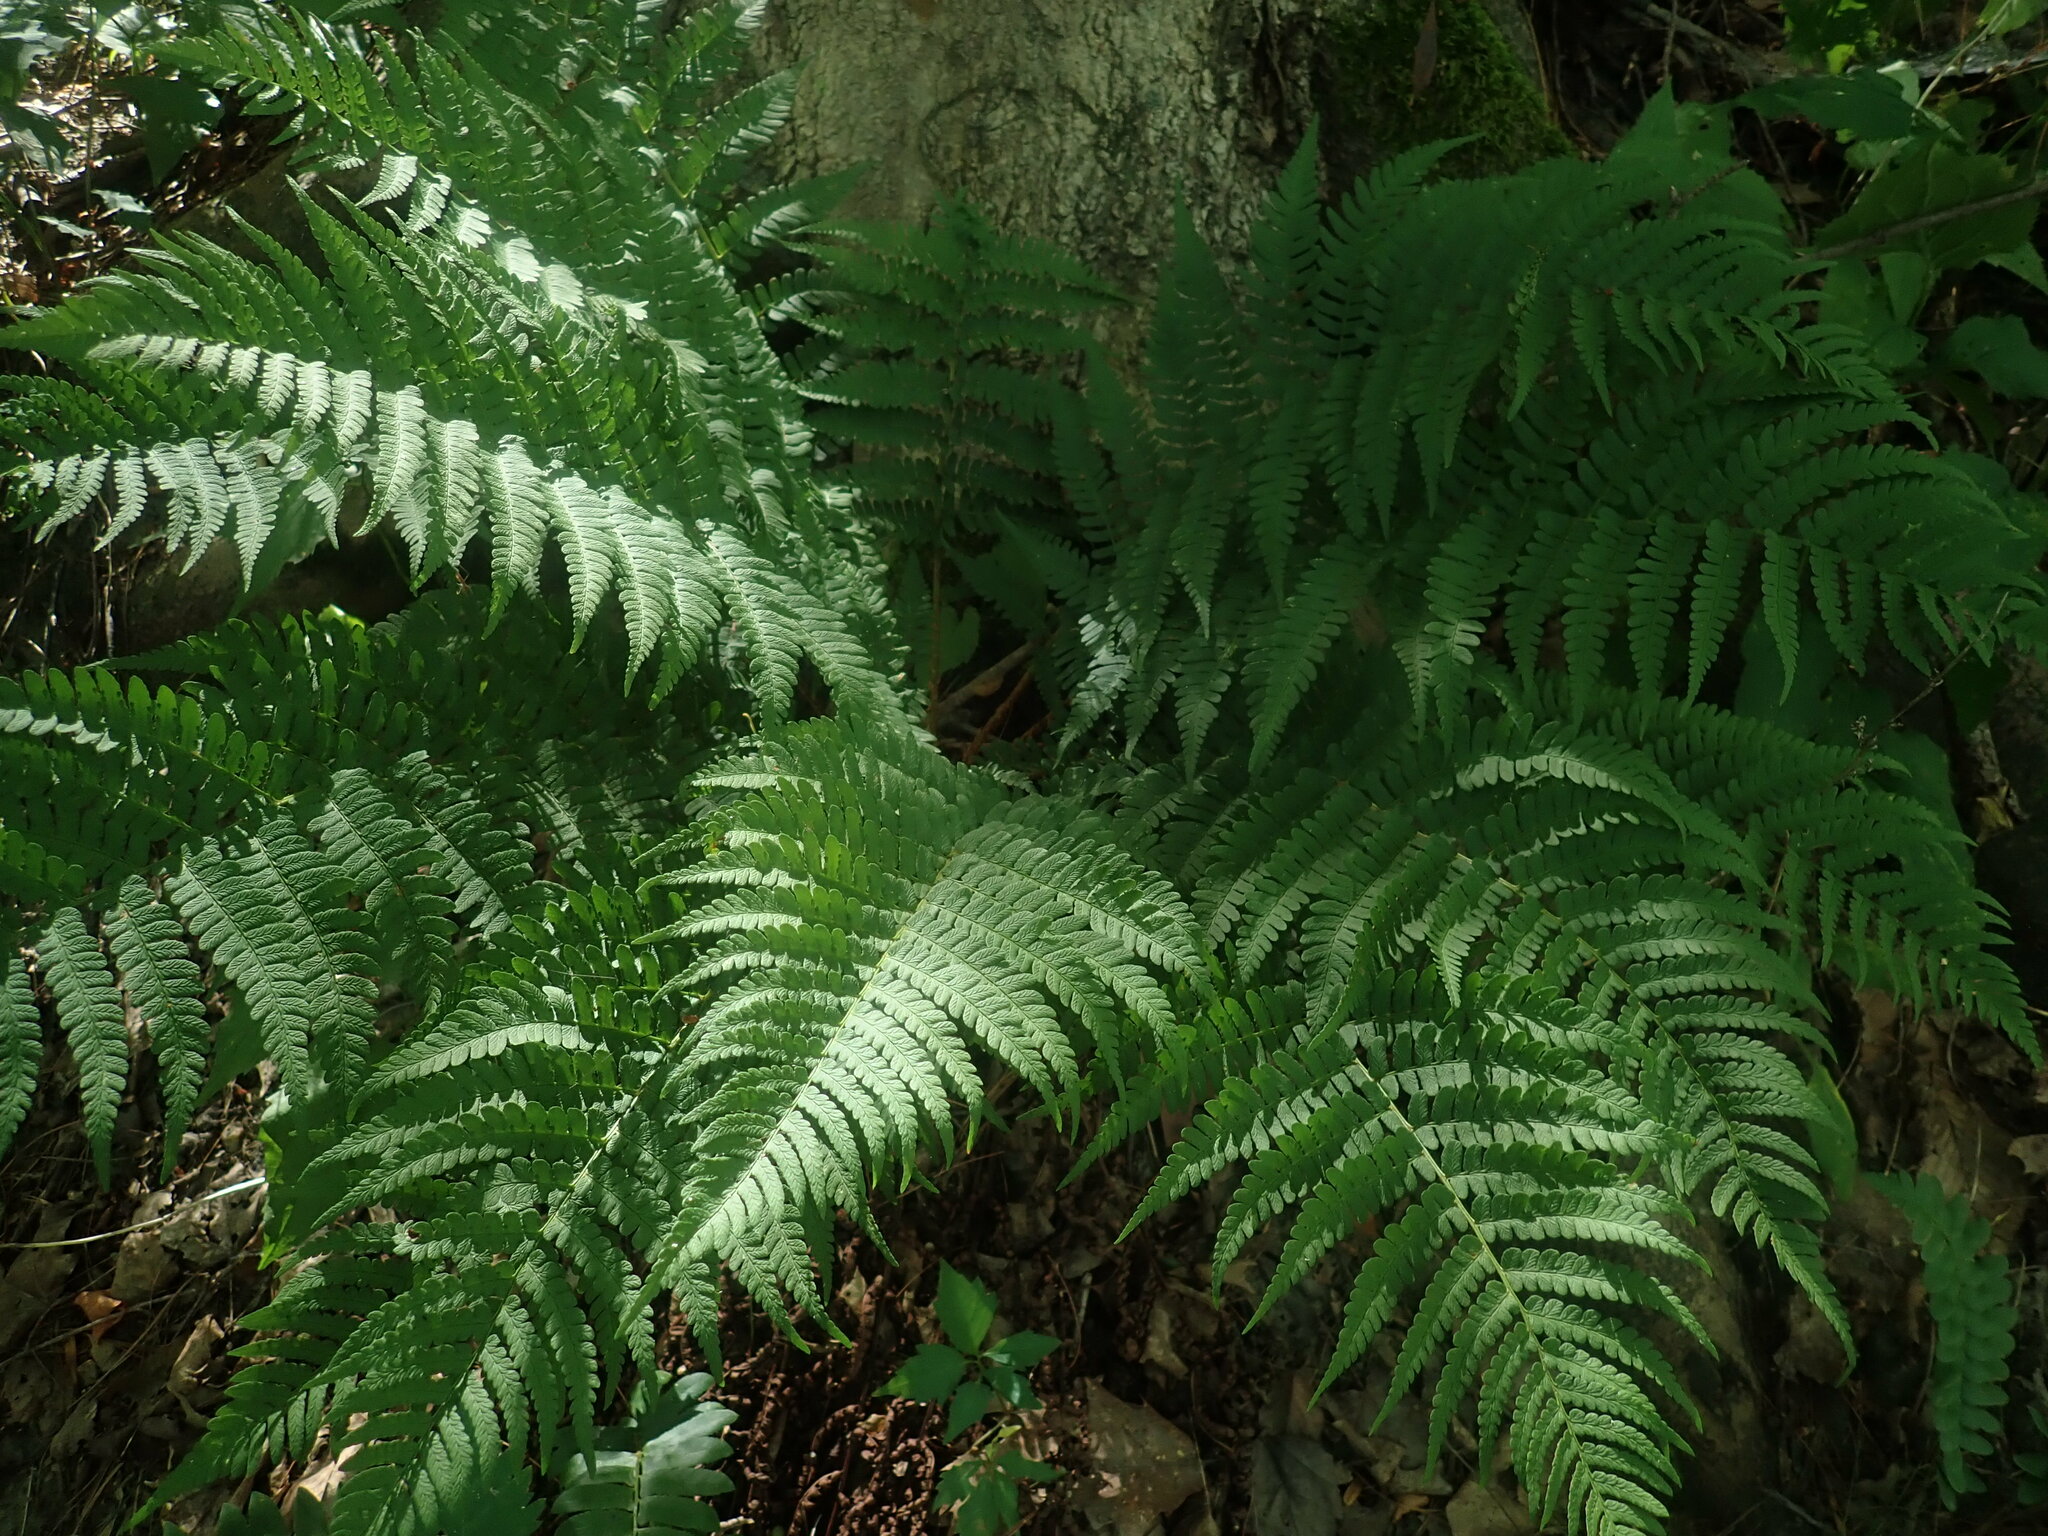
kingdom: Plantae
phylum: Tracheophyta
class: Polypodiopsida
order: Polypodiales
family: Dryopteridaceae
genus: Dryopteris
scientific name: Dryopteris marginalis
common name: Marginal wood fern
